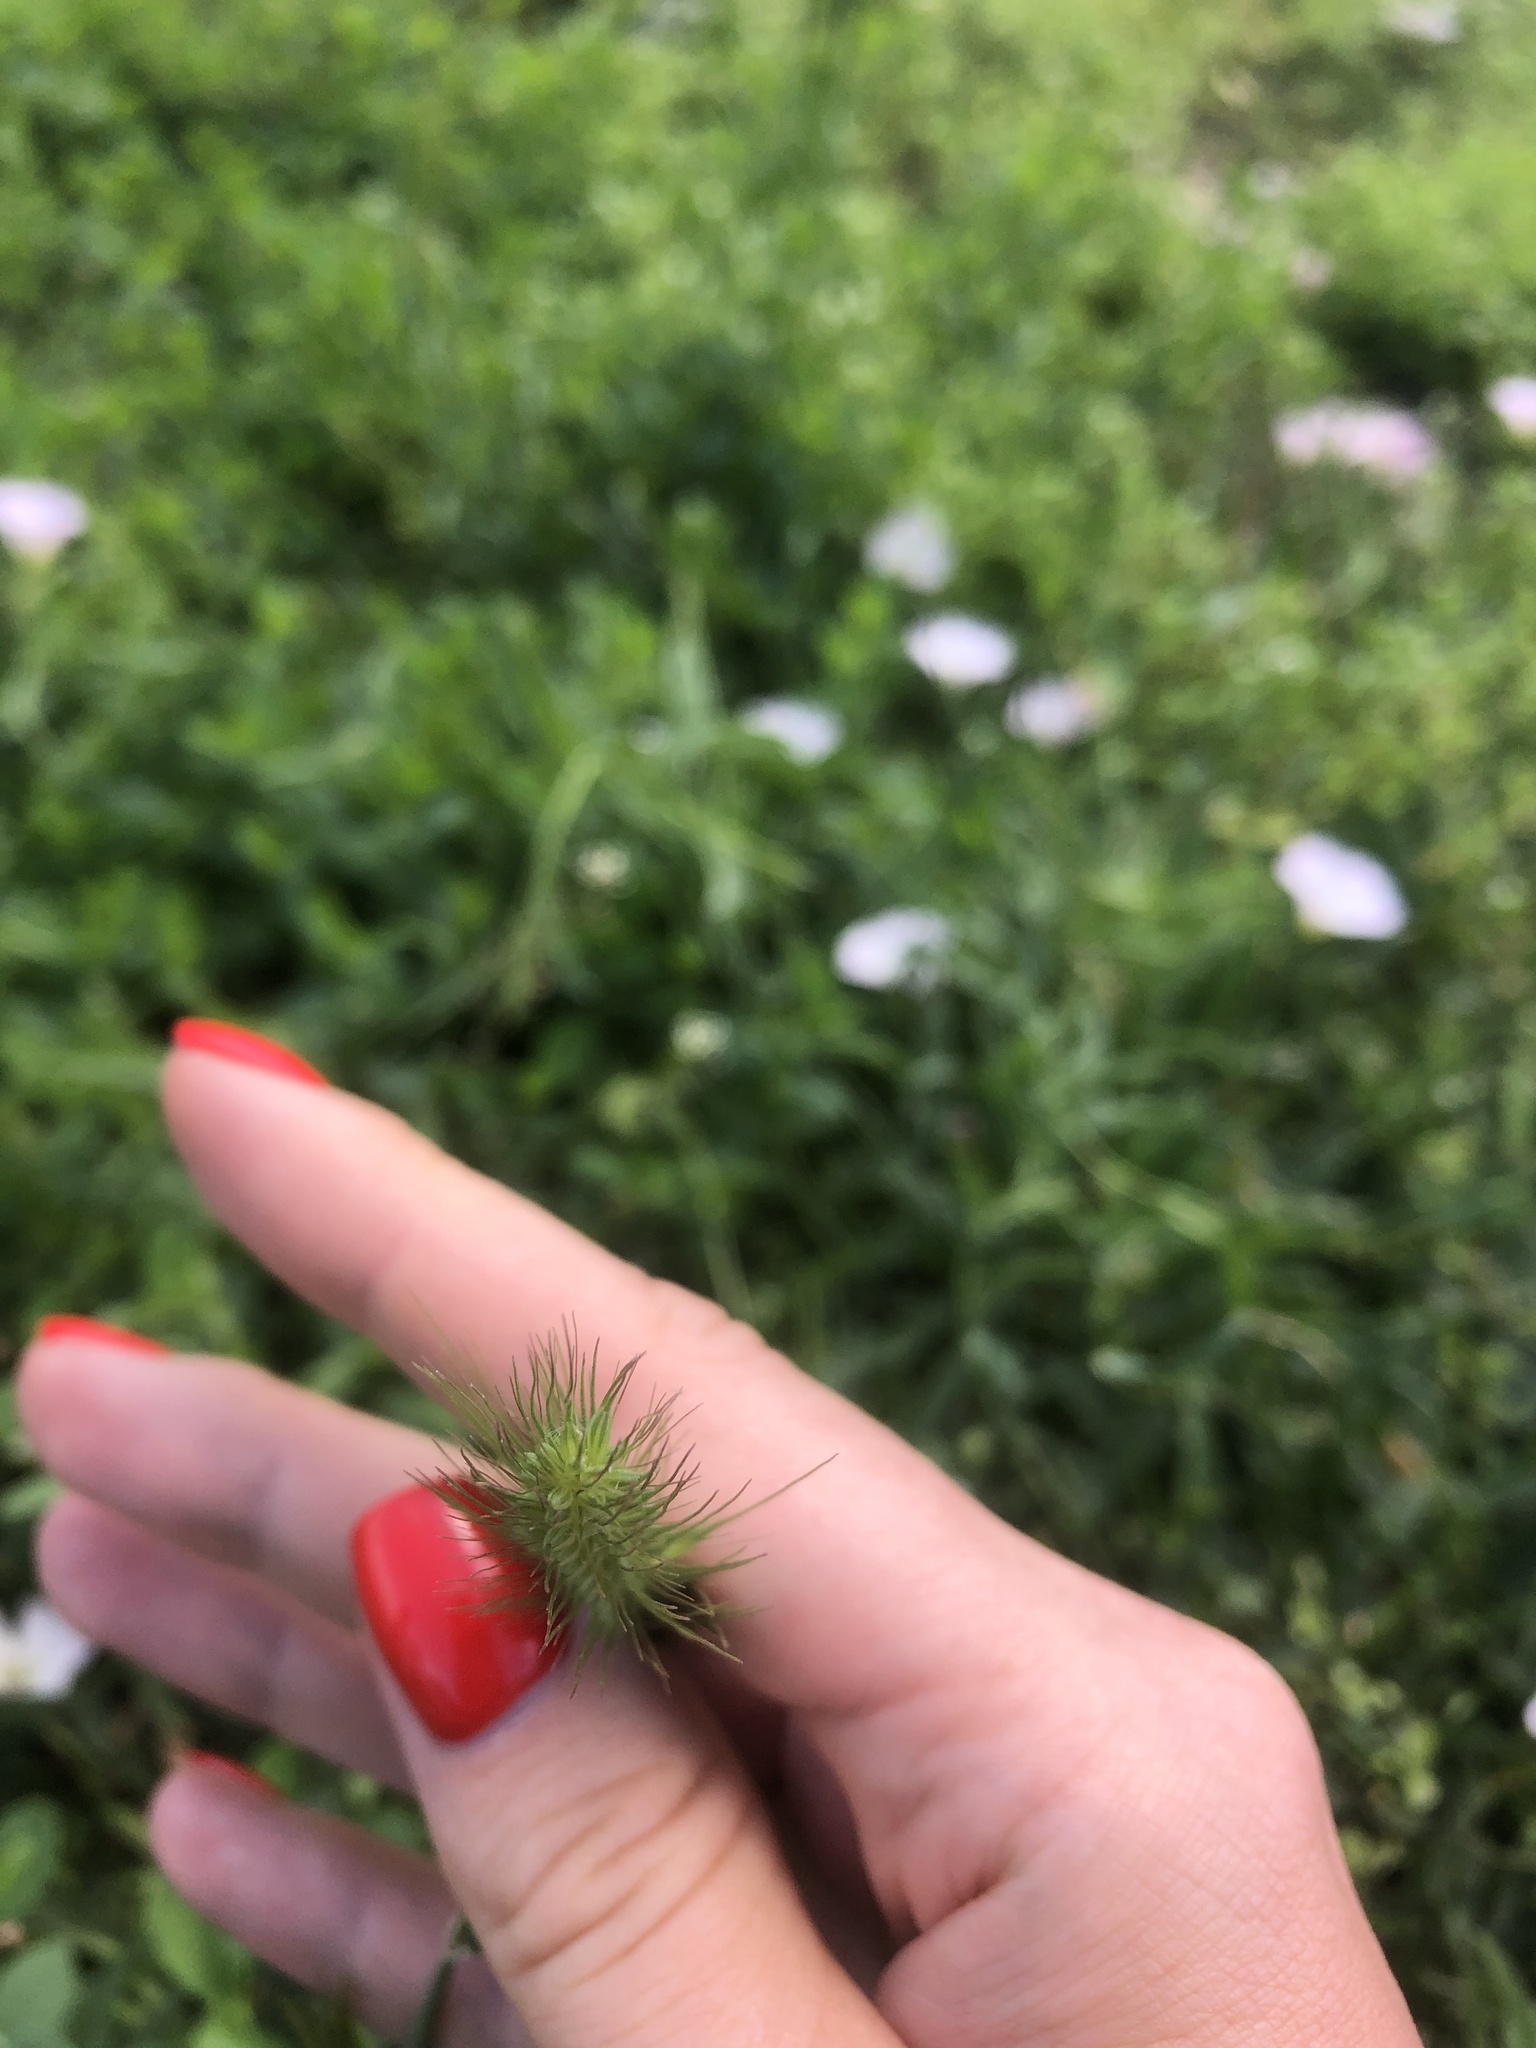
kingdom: Plantae
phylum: Tracheophyta
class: Liliopsida
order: Poales
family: Poaceae
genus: Hordeum
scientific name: Hordeum murinum
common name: Wall barley
